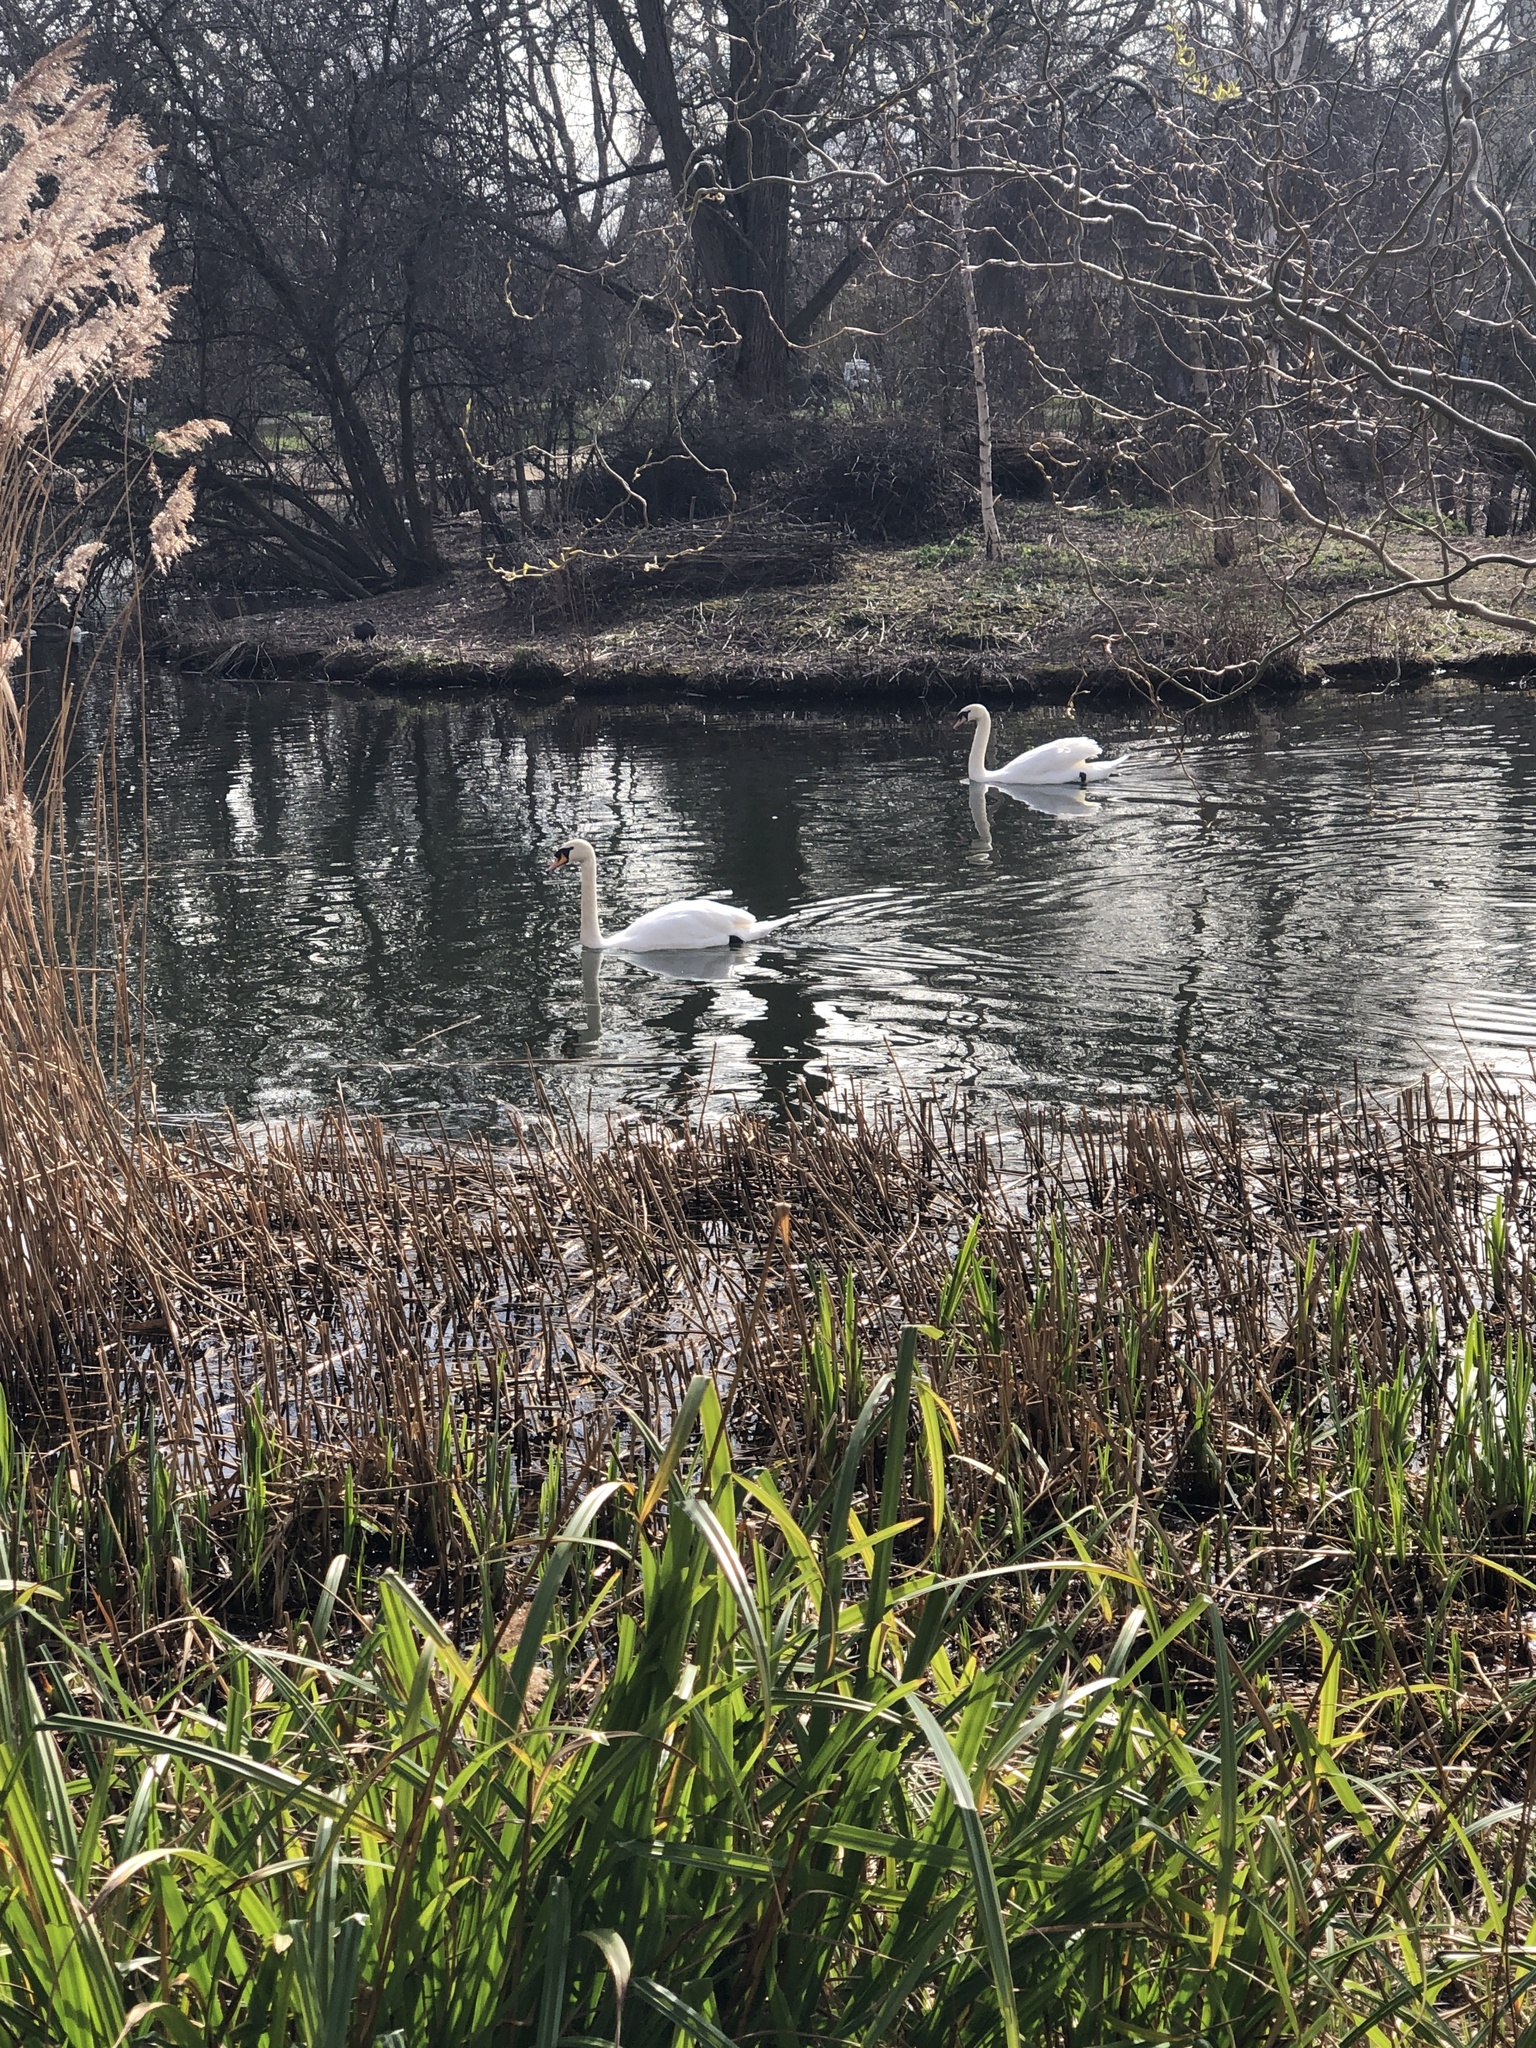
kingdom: Animalia
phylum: Chordata
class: Aves
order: Anseriformes
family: Anatidae
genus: Cygnus
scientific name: Cygnus olor
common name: Mute swan
